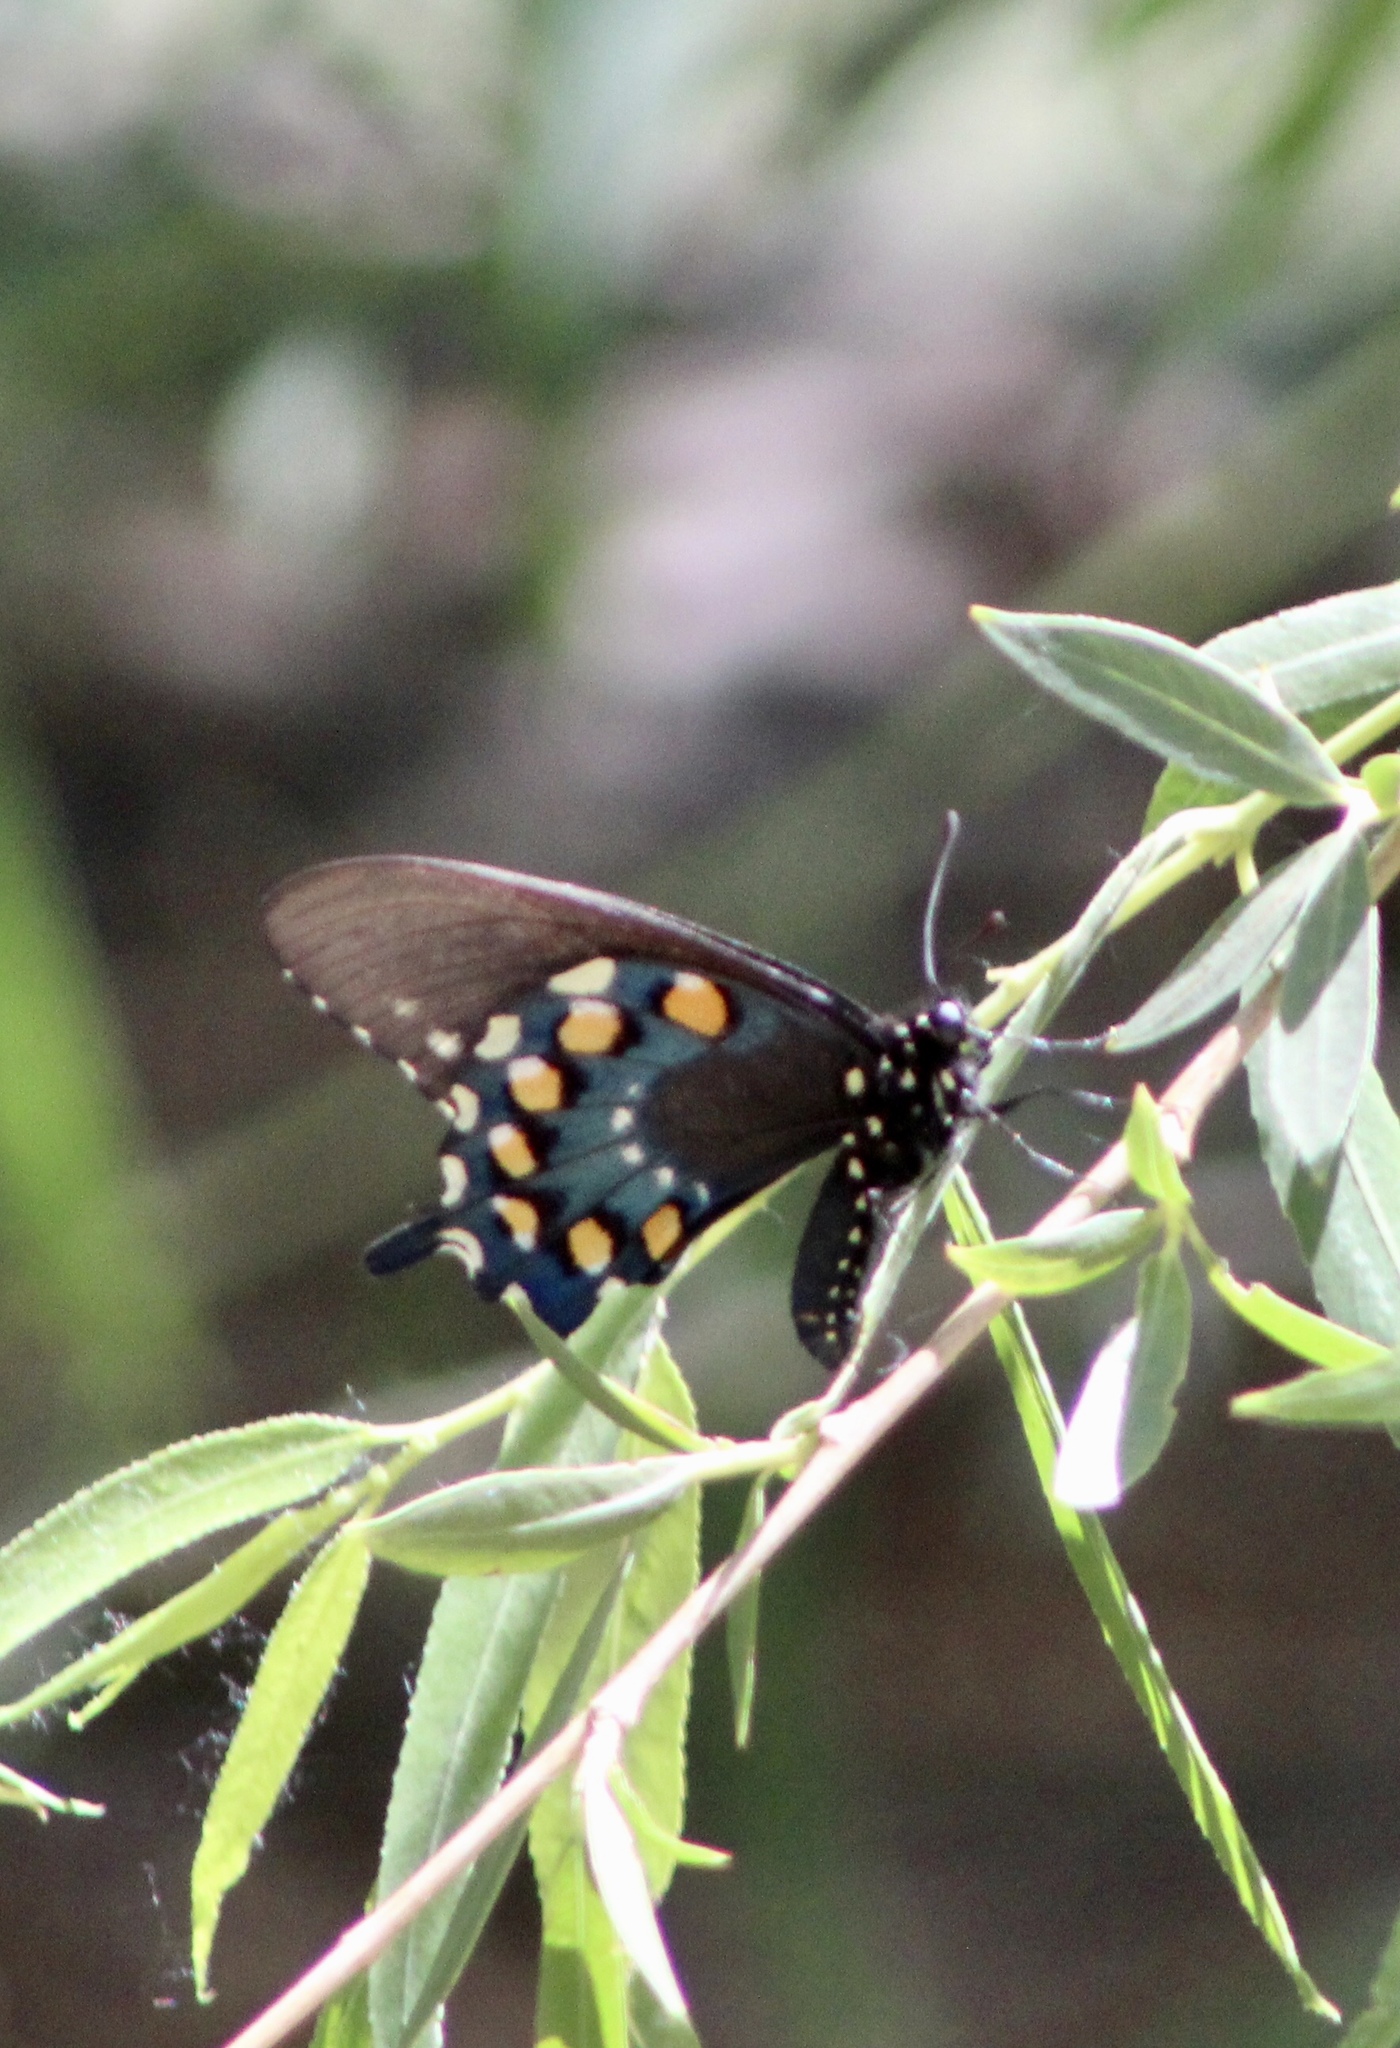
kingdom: Animalia
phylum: Arthropoda
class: Insecta
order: Lepidoptera
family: Papilionidae
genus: Battus
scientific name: Battus philenor
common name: Pipevine swallowtail
